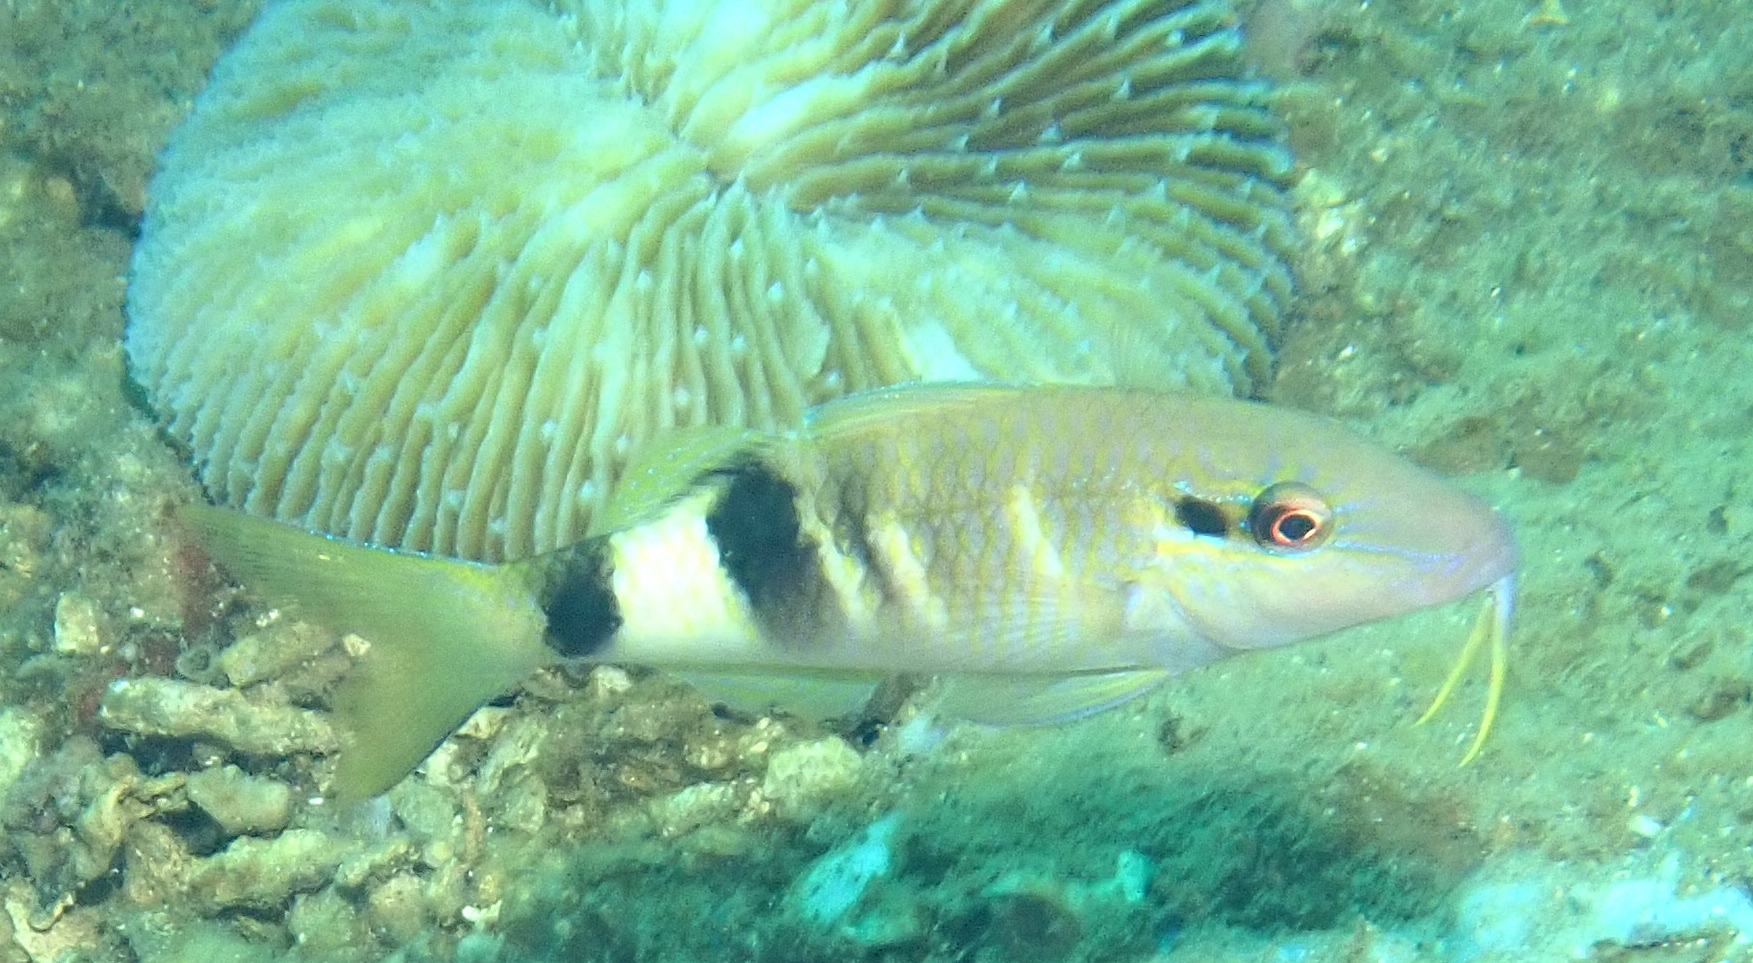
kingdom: Animalia
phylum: Chordata
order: Perciformes
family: Mullidae
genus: Parupeneus
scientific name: Parupeneus multifasciatus
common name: Manybar goatfish
